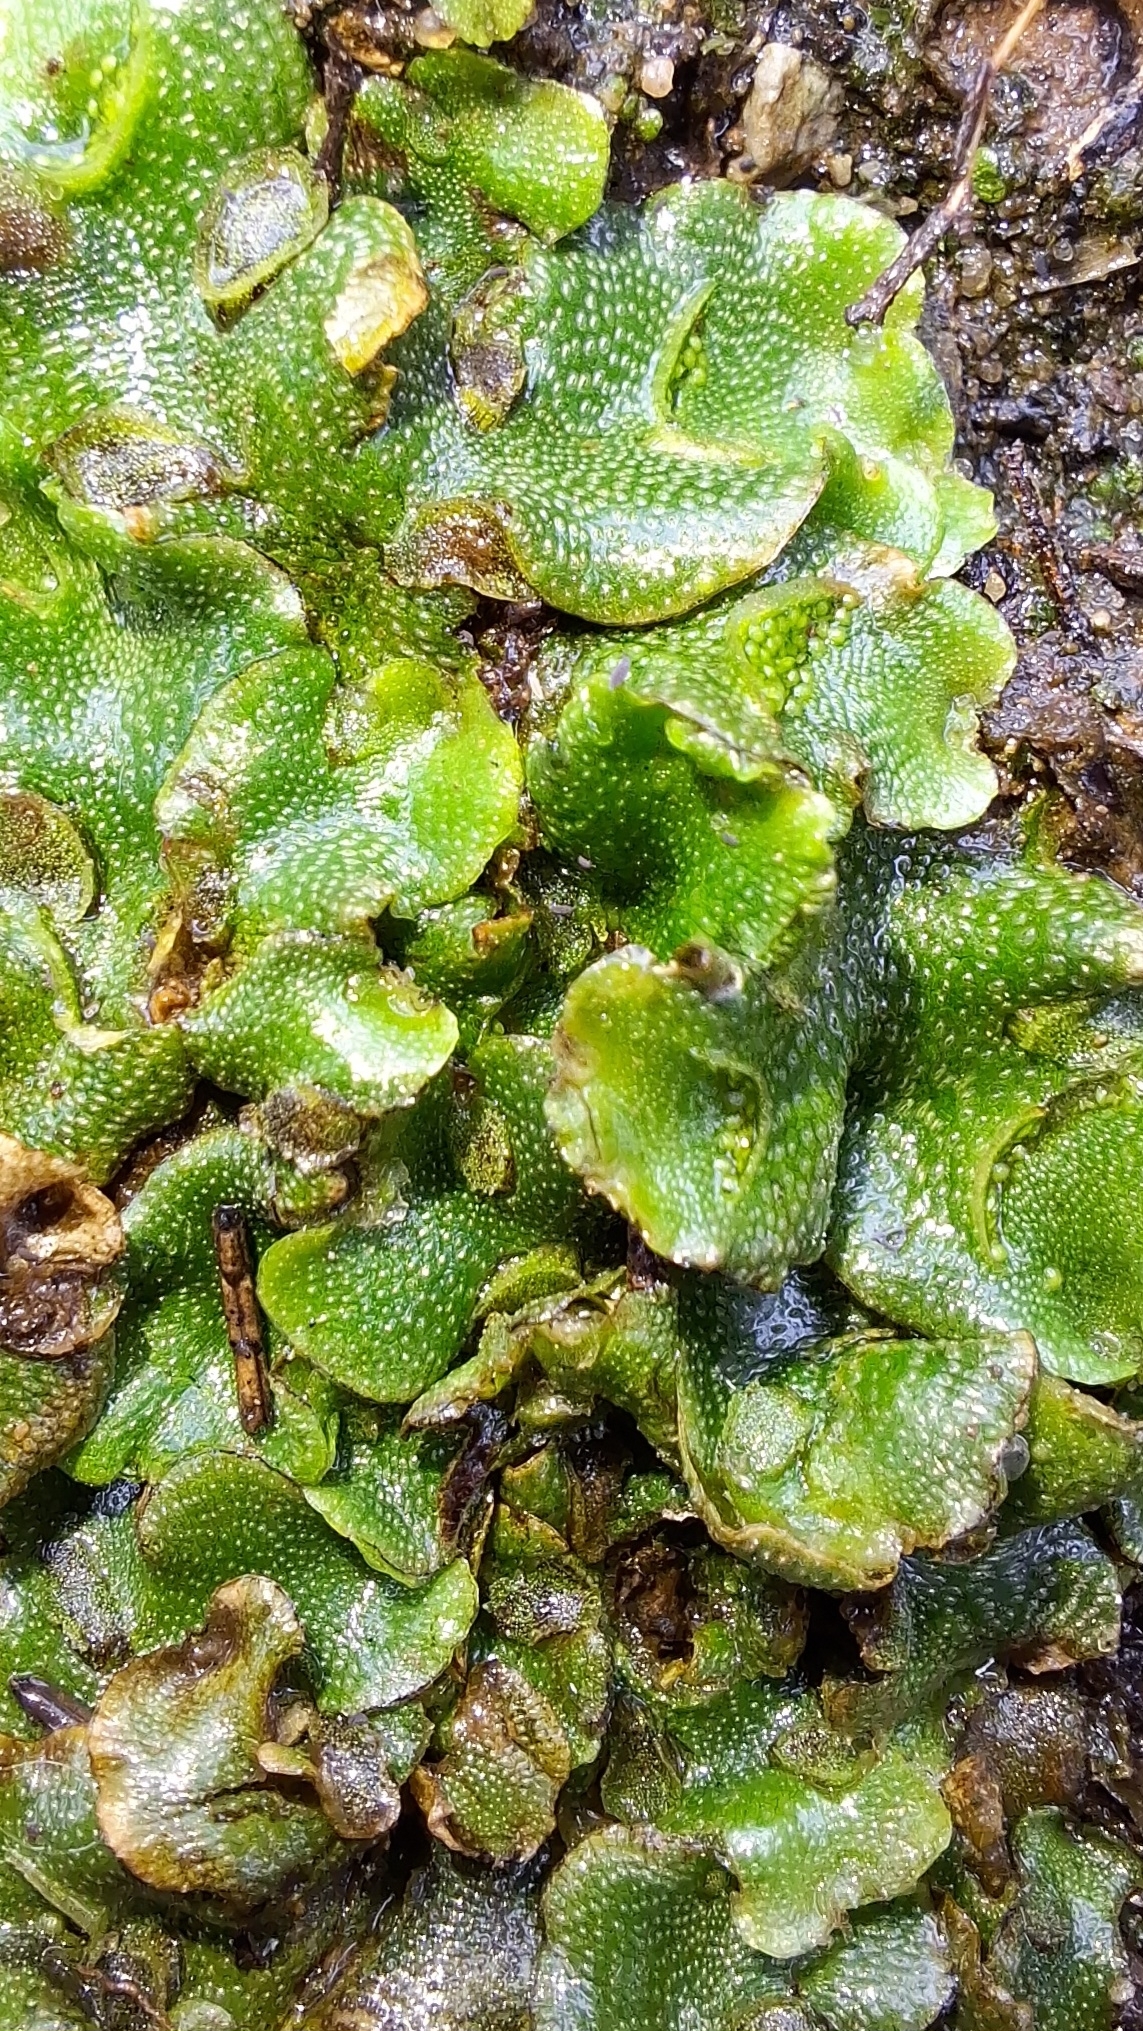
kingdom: Plantae
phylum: Marchantiophyta
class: Marchantiopsida
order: Lunulariales
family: Lunulariaceae
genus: Lunularia
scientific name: Lunularia cruciata
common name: Crescent-cup liverwort
